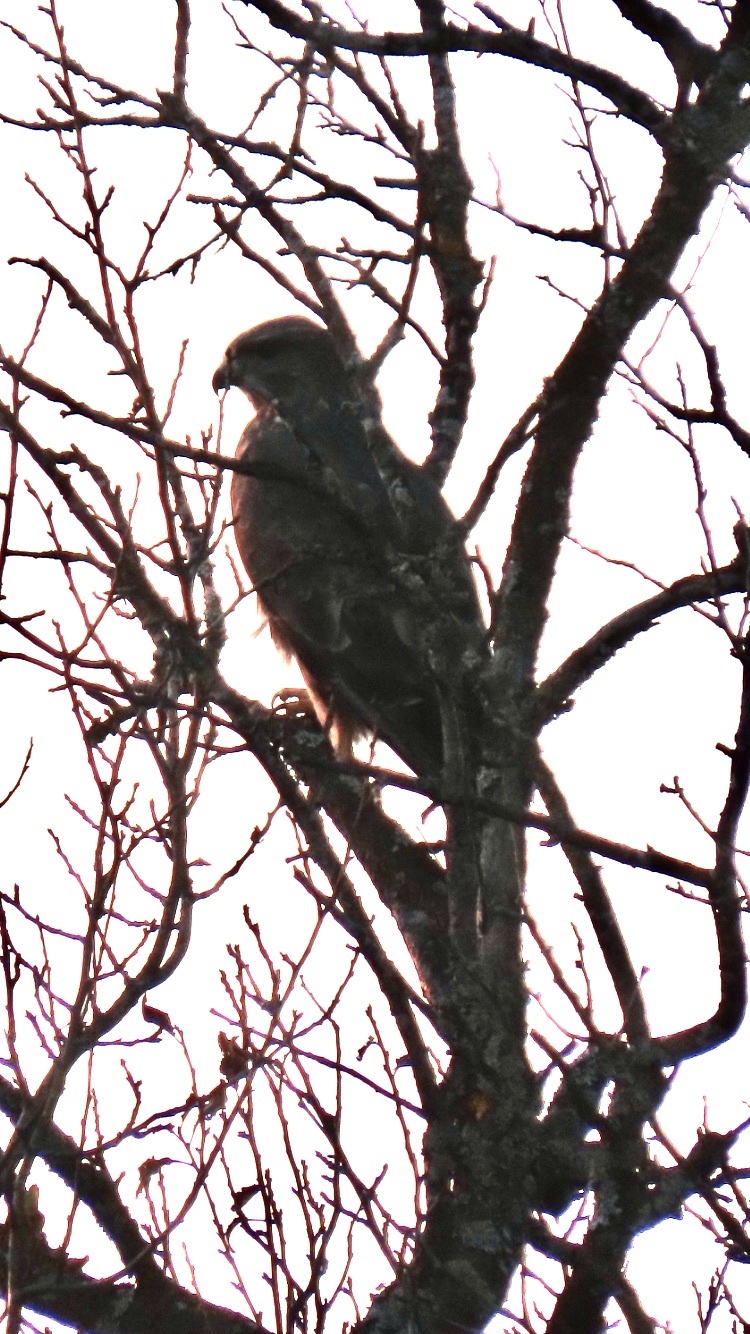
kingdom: Animalia
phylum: Chordata
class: Aves
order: Accipitriformes
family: Accipitridae
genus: Buteo
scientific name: Buteo buteo
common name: Common buzzard
